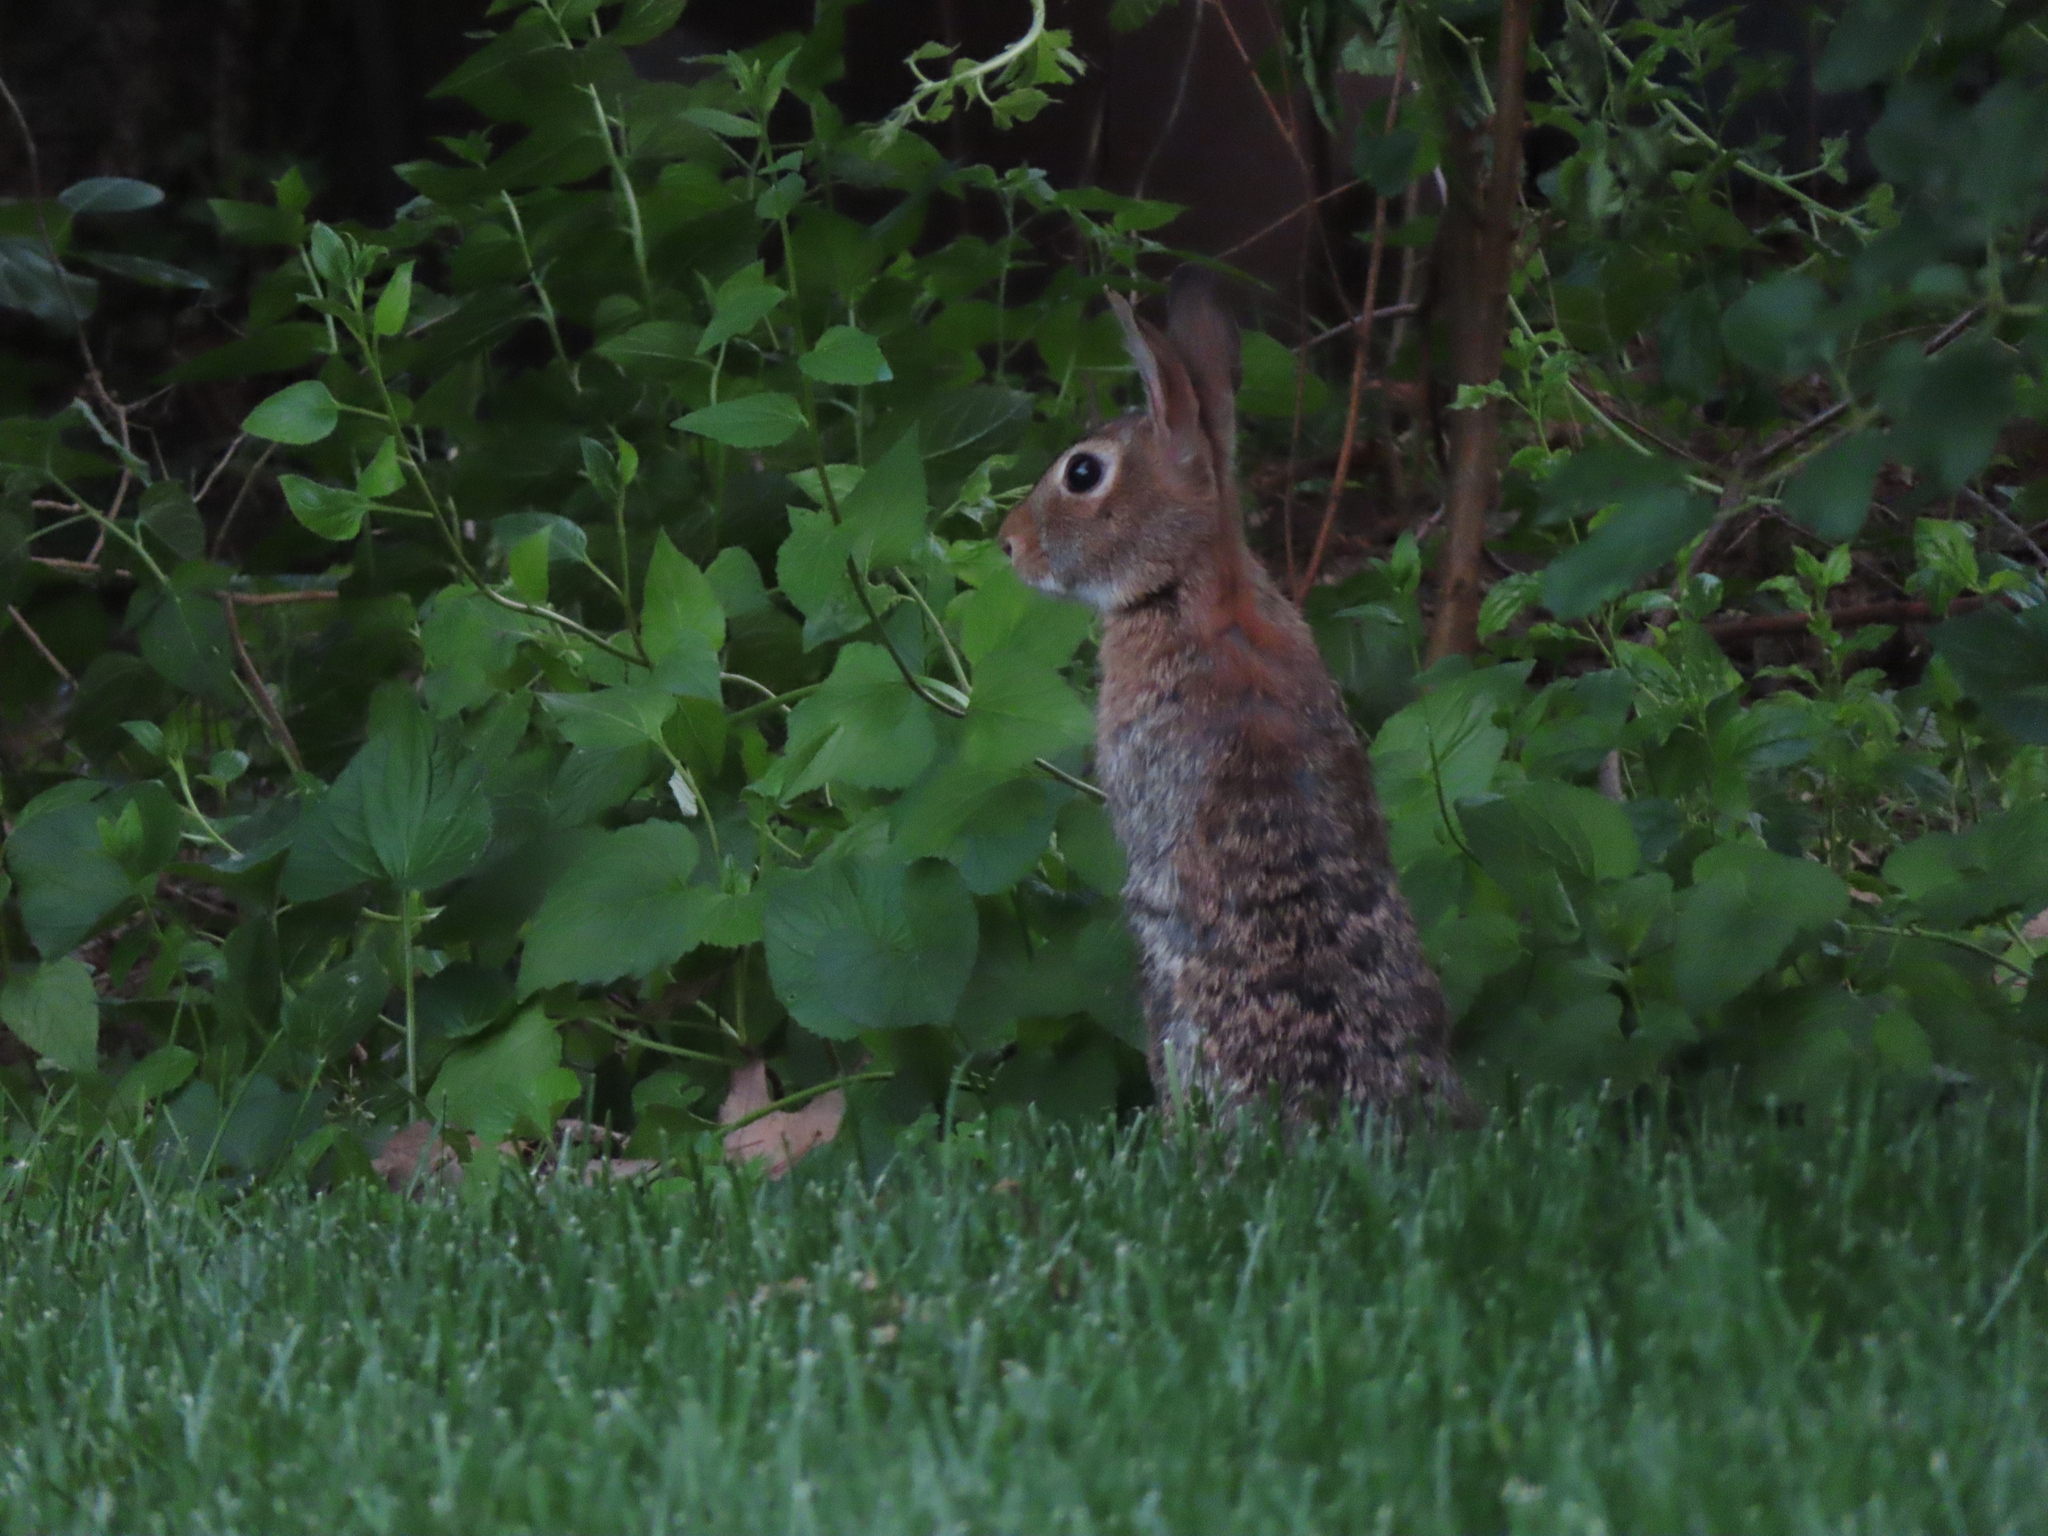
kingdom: Animalia
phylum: Chordata
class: Mammalia
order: Lagomorpha
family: Leporidae
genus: Sylvilagus
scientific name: Sylvilagus floridanus
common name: Eastern cottontail
